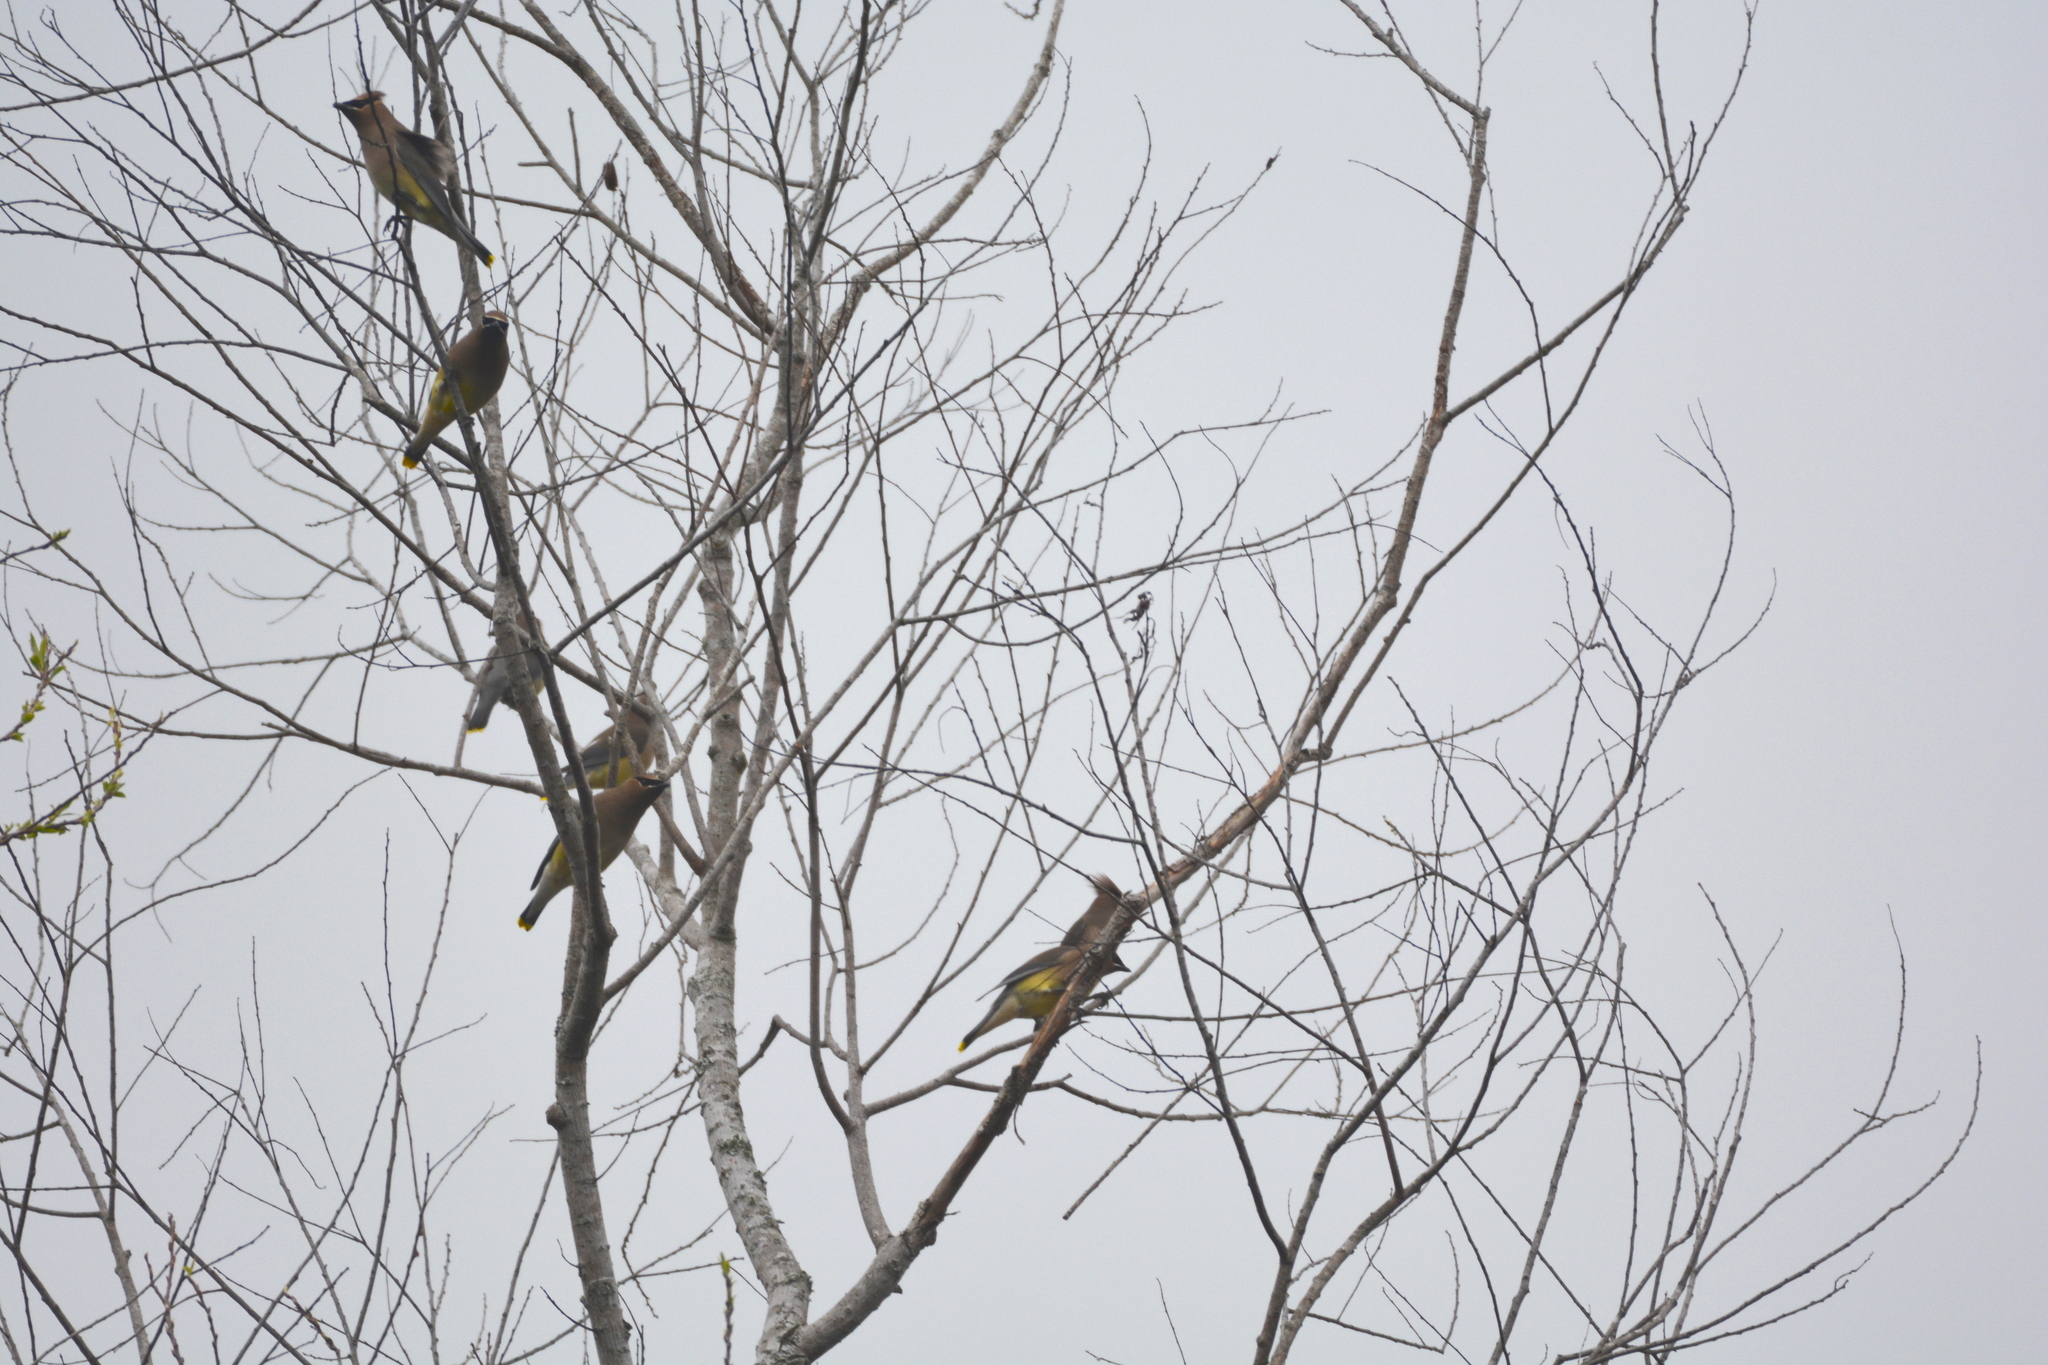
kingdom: Animalia
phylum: Chordata
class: Aves
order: Passeriformes
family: Bombycillidae
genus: Bombycilla
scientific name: Bombycilla cedrorum
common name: Cedar waxwing
